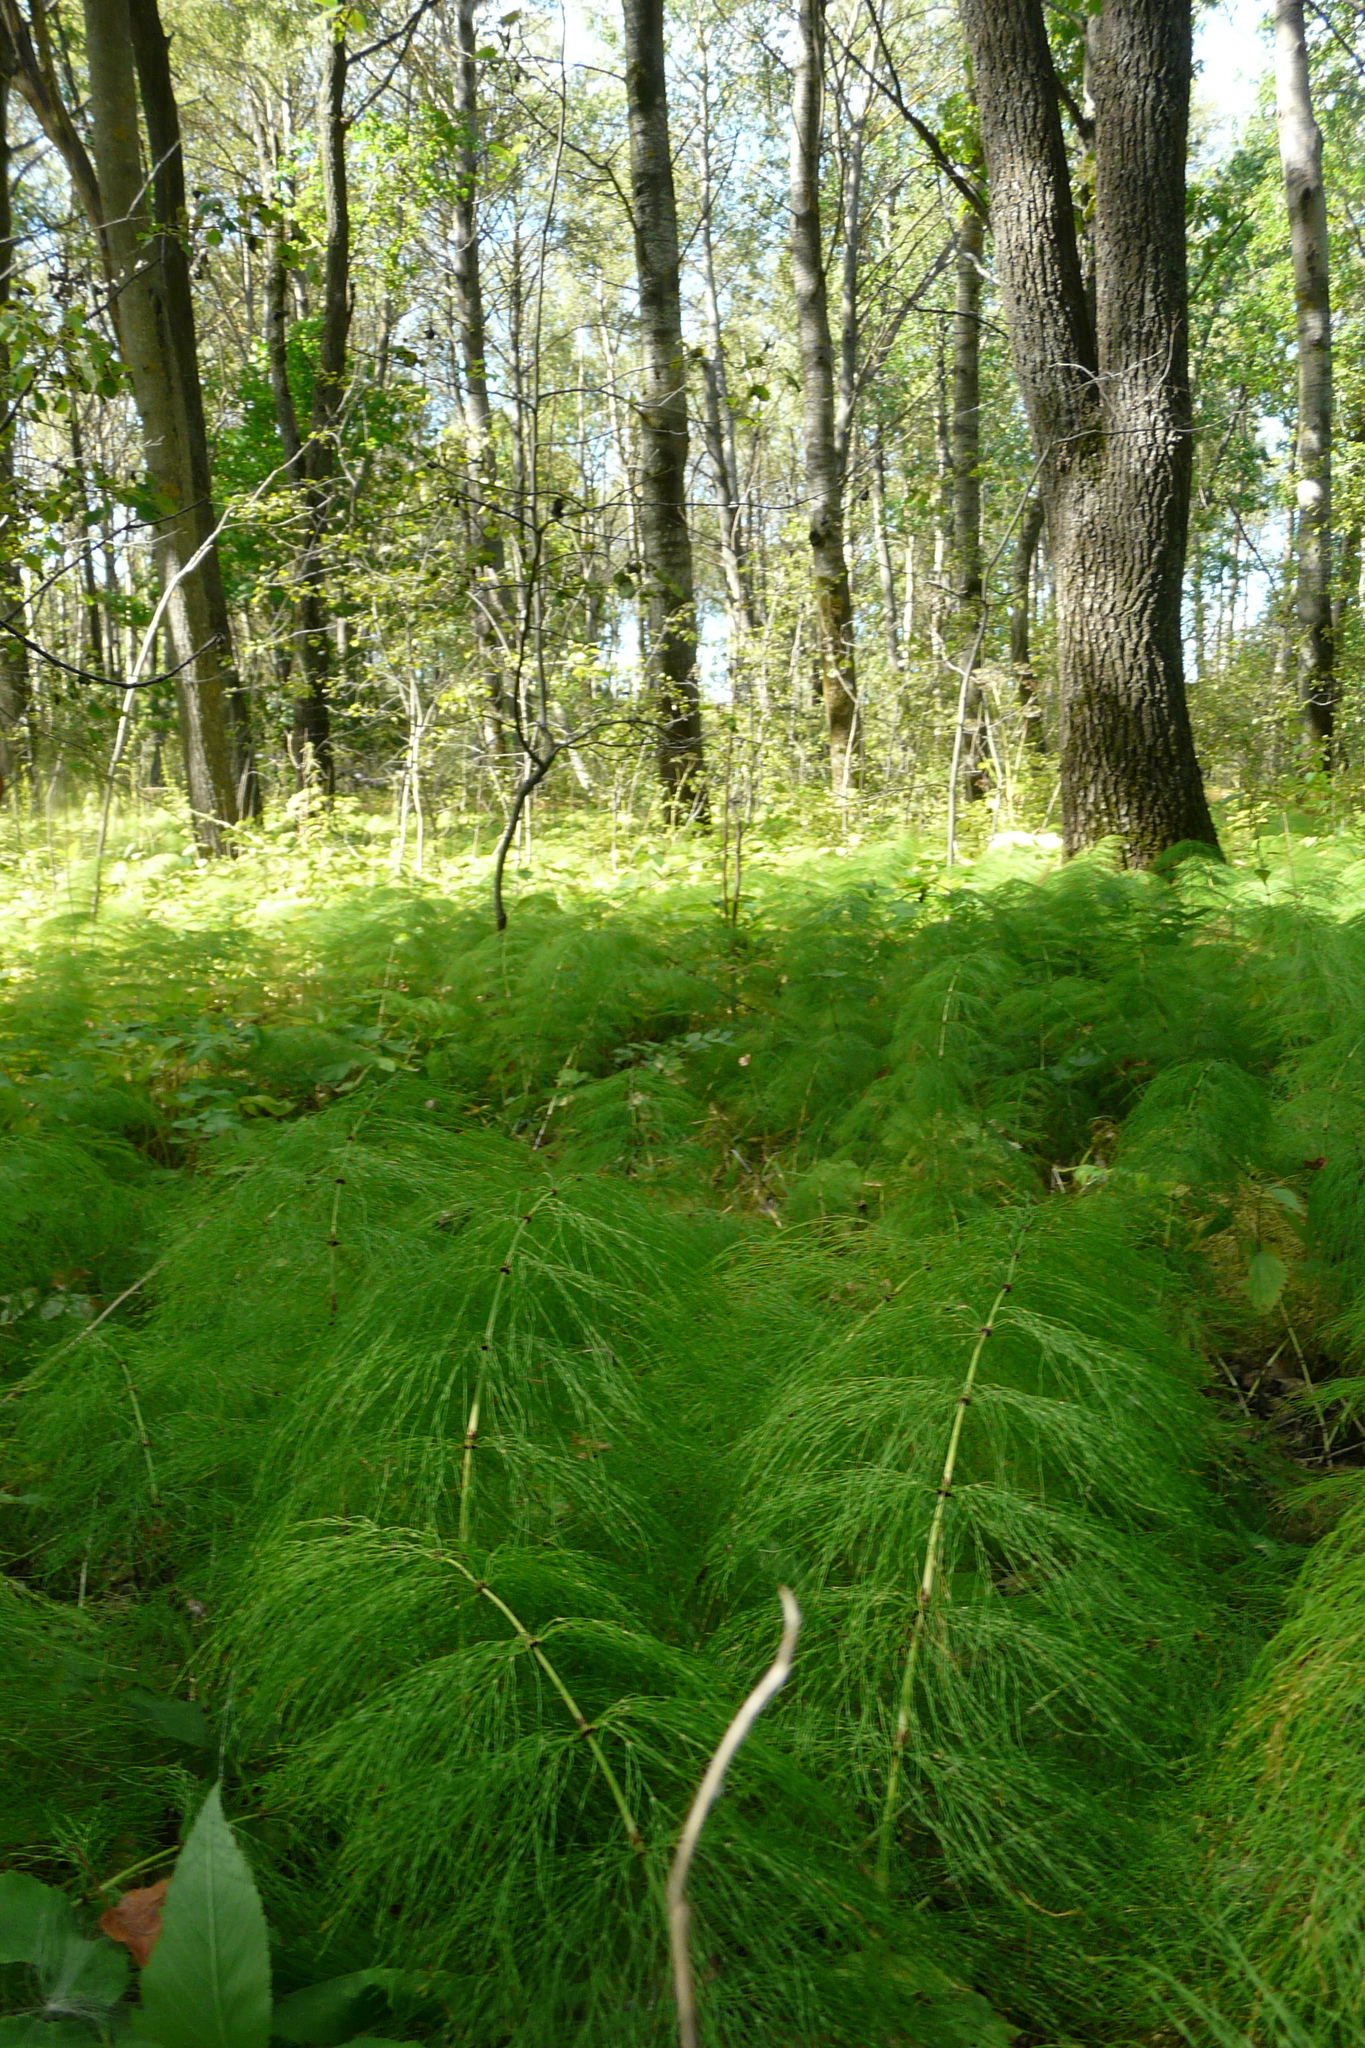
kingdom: Plantae
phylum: Tracheophyta
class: Polypodiopsida
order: Equisetales
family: Equisetaceae
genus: Equisetum
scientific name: Equisetum sylvaticum
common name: Wood horsetail
